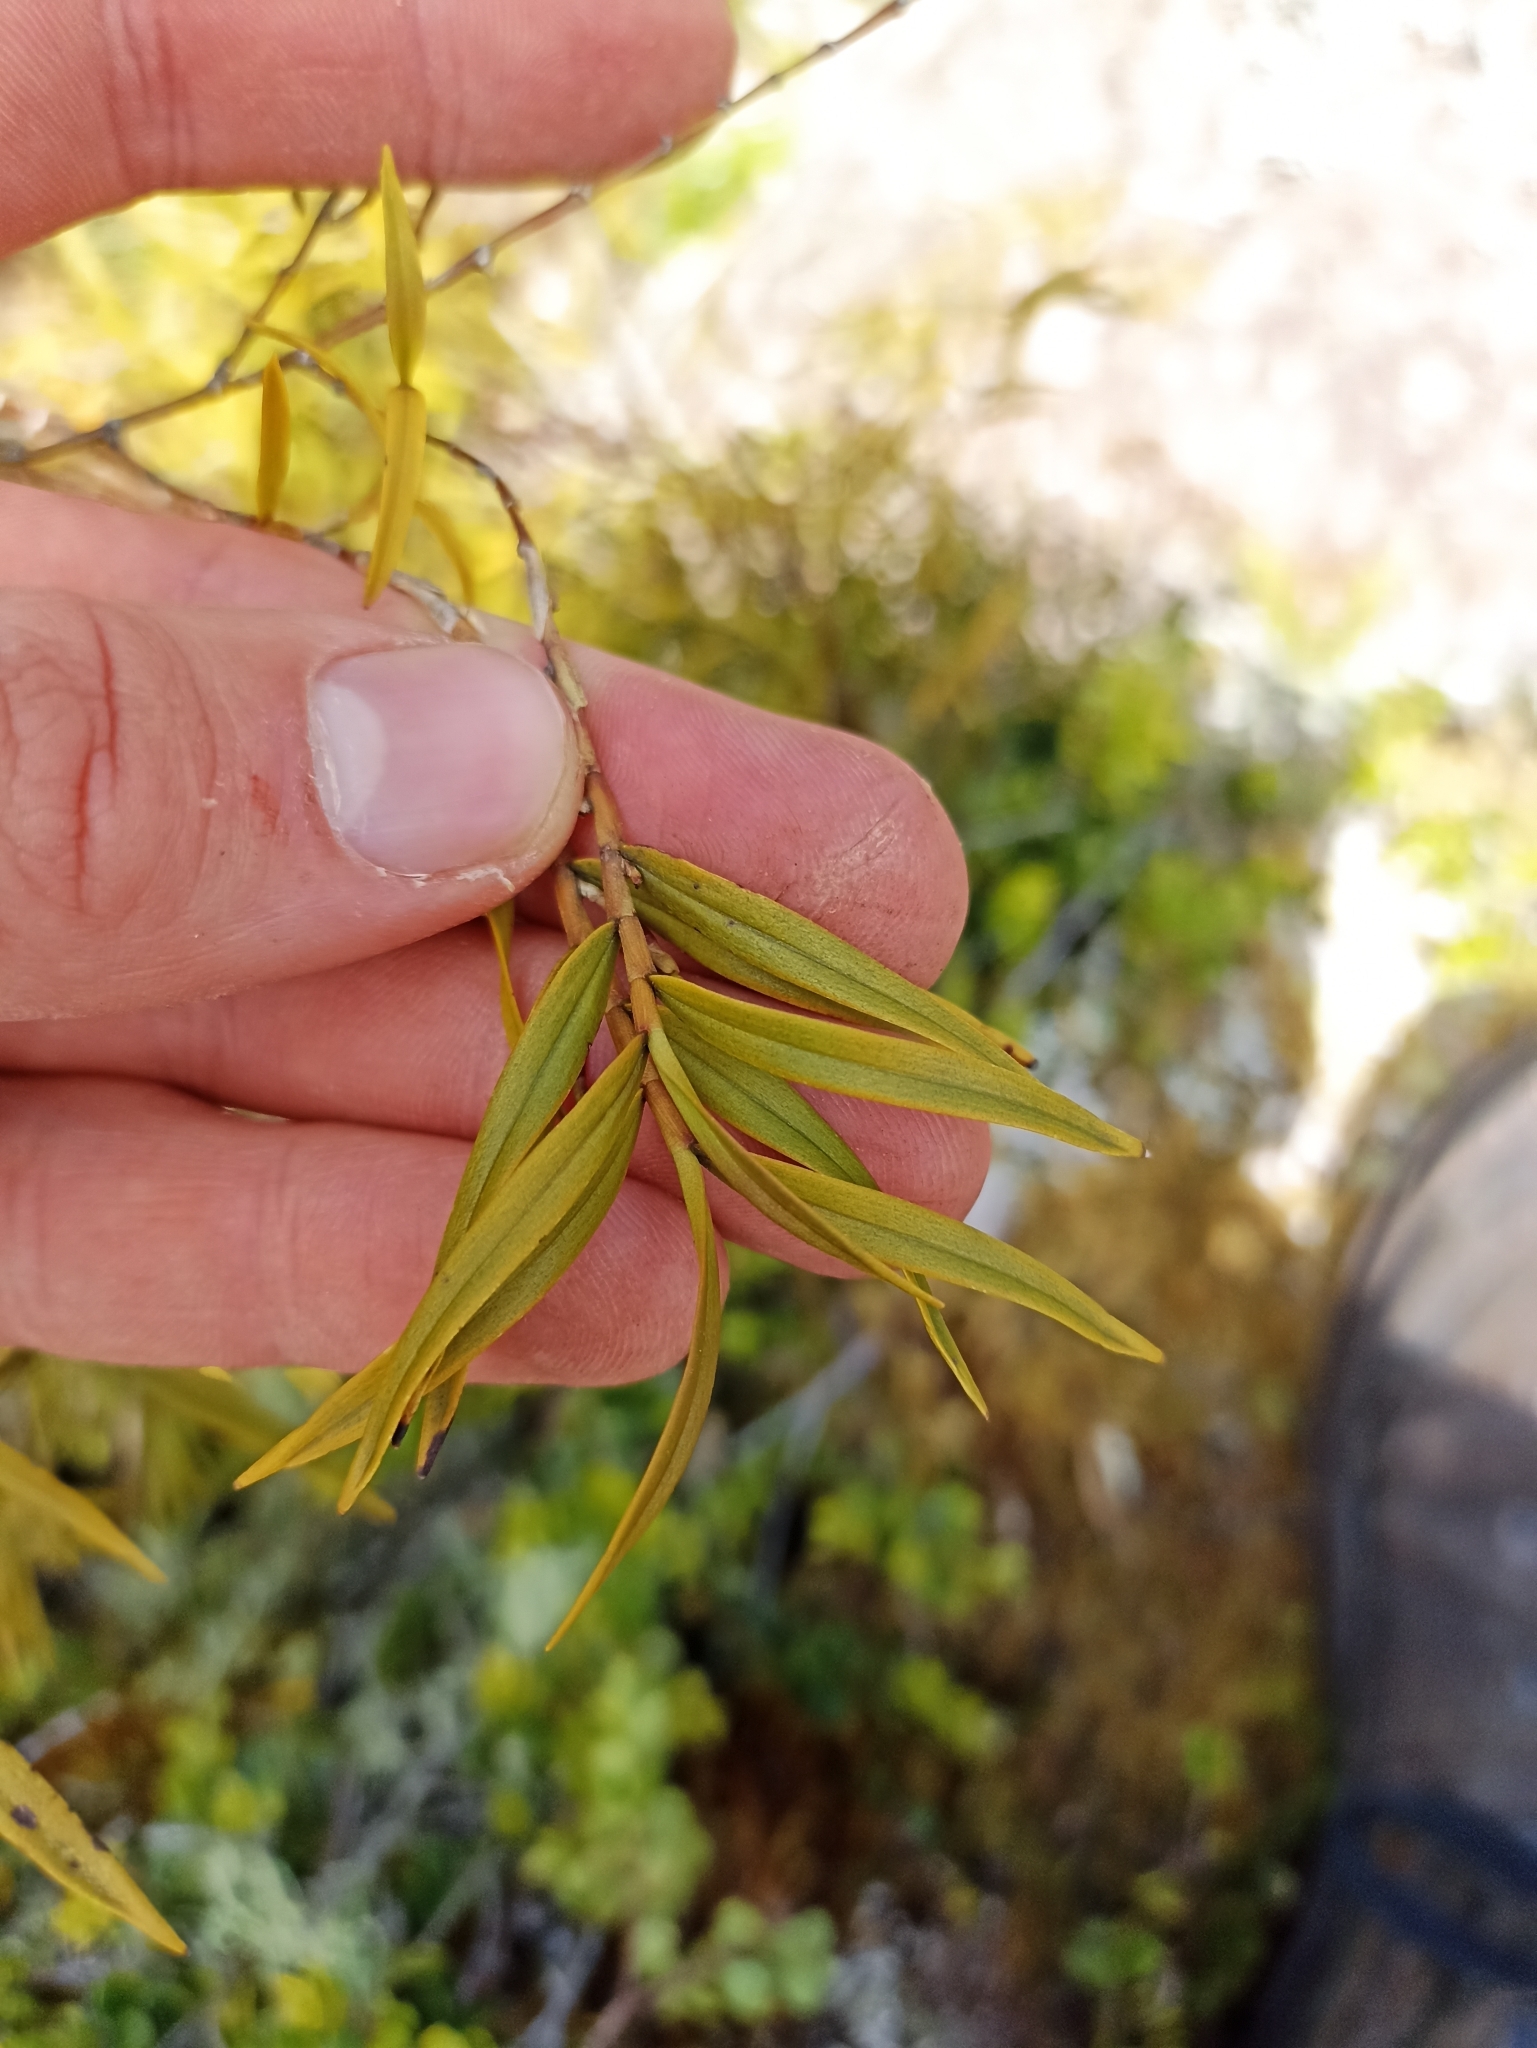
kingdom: Plantae
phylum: Tracheophyta
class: Liliopsida
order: Asparagales
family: Orchidaceae
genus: Dendrobium
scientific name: Dendrobium cunninghamii
